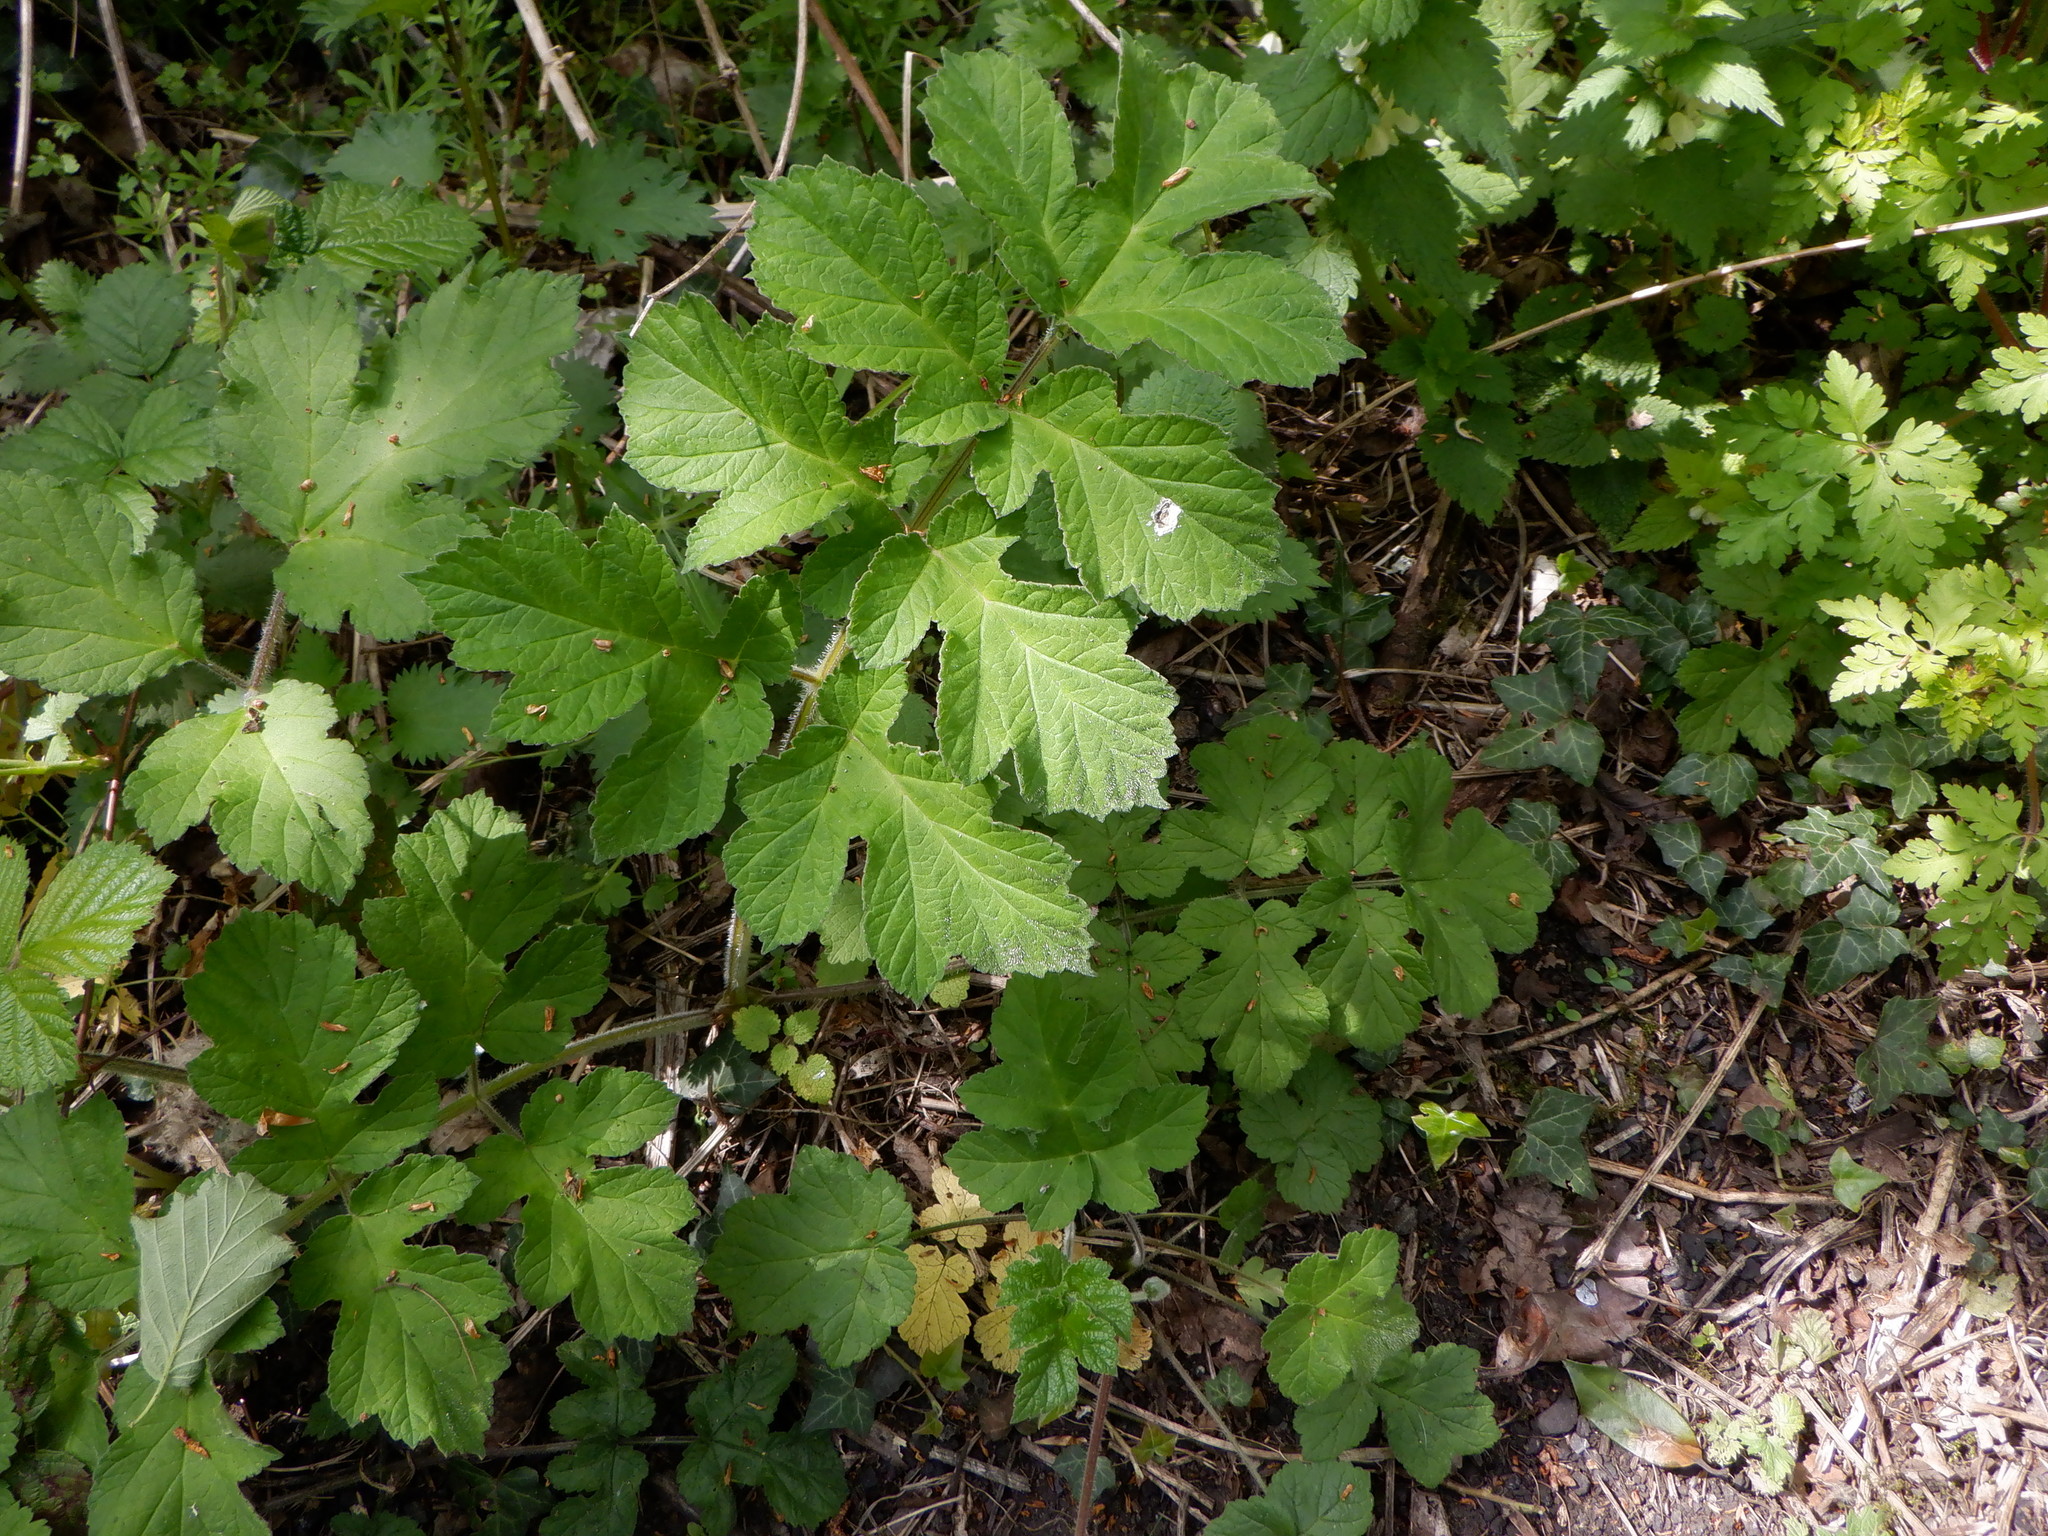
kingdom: Plantae
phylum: Tracheophyta
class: Magnoliopsida
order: Apiales
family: Apiaceae
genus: Heracleum
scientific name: Heracleum sphondylium
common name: Hogweed
